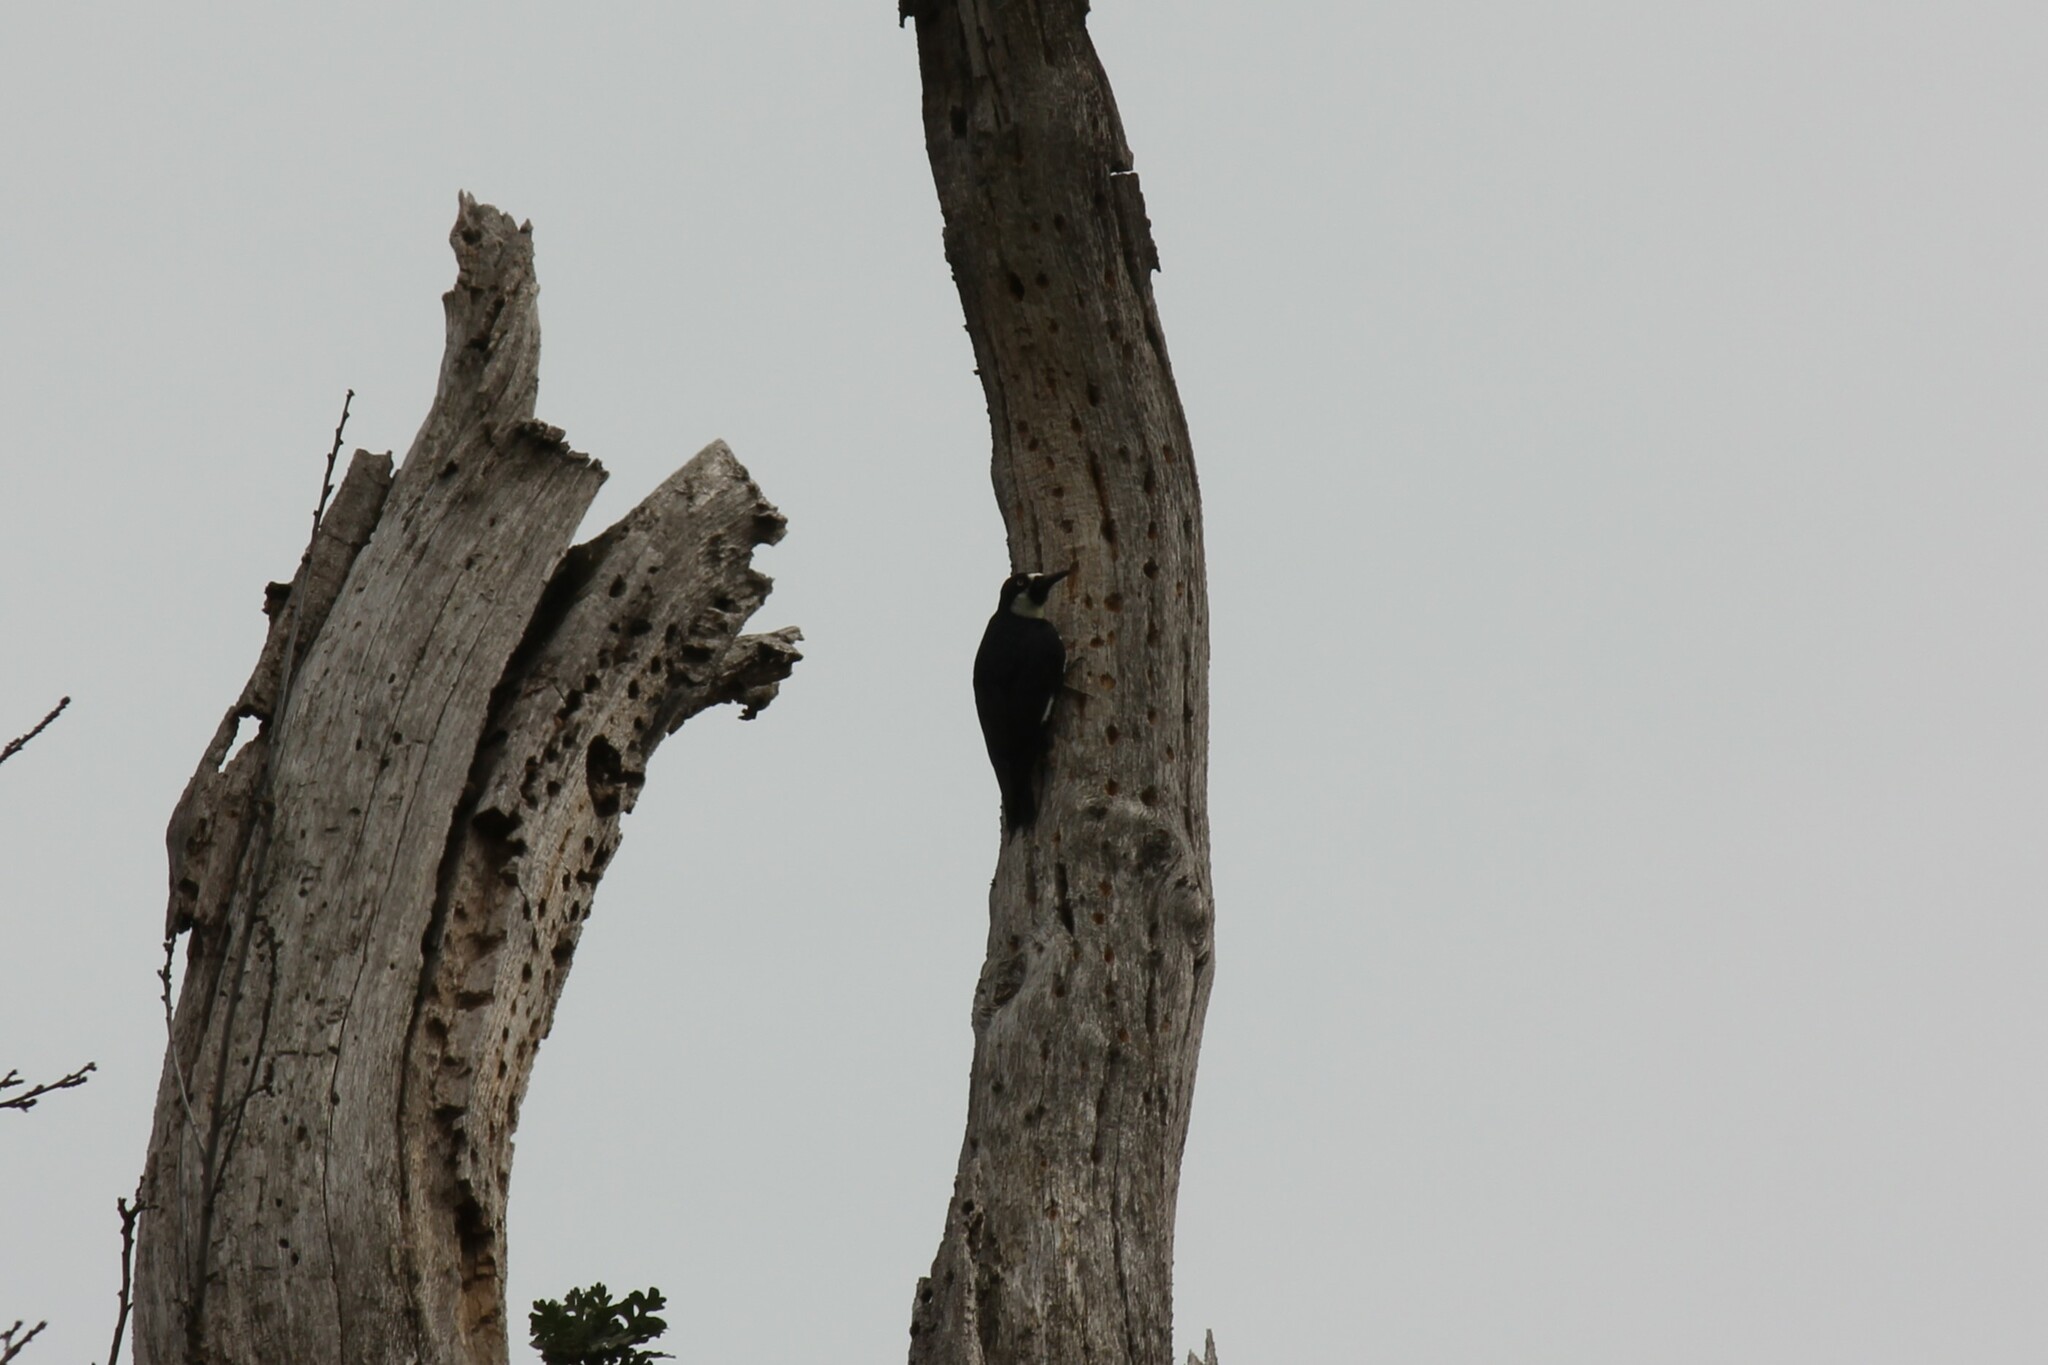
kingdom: Animalia
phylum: Chordata
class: Aves
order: Piciformes
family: Picidae
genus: Melanerpes
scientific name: Melanerpes formicivorus
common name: Acorn woodpecker
